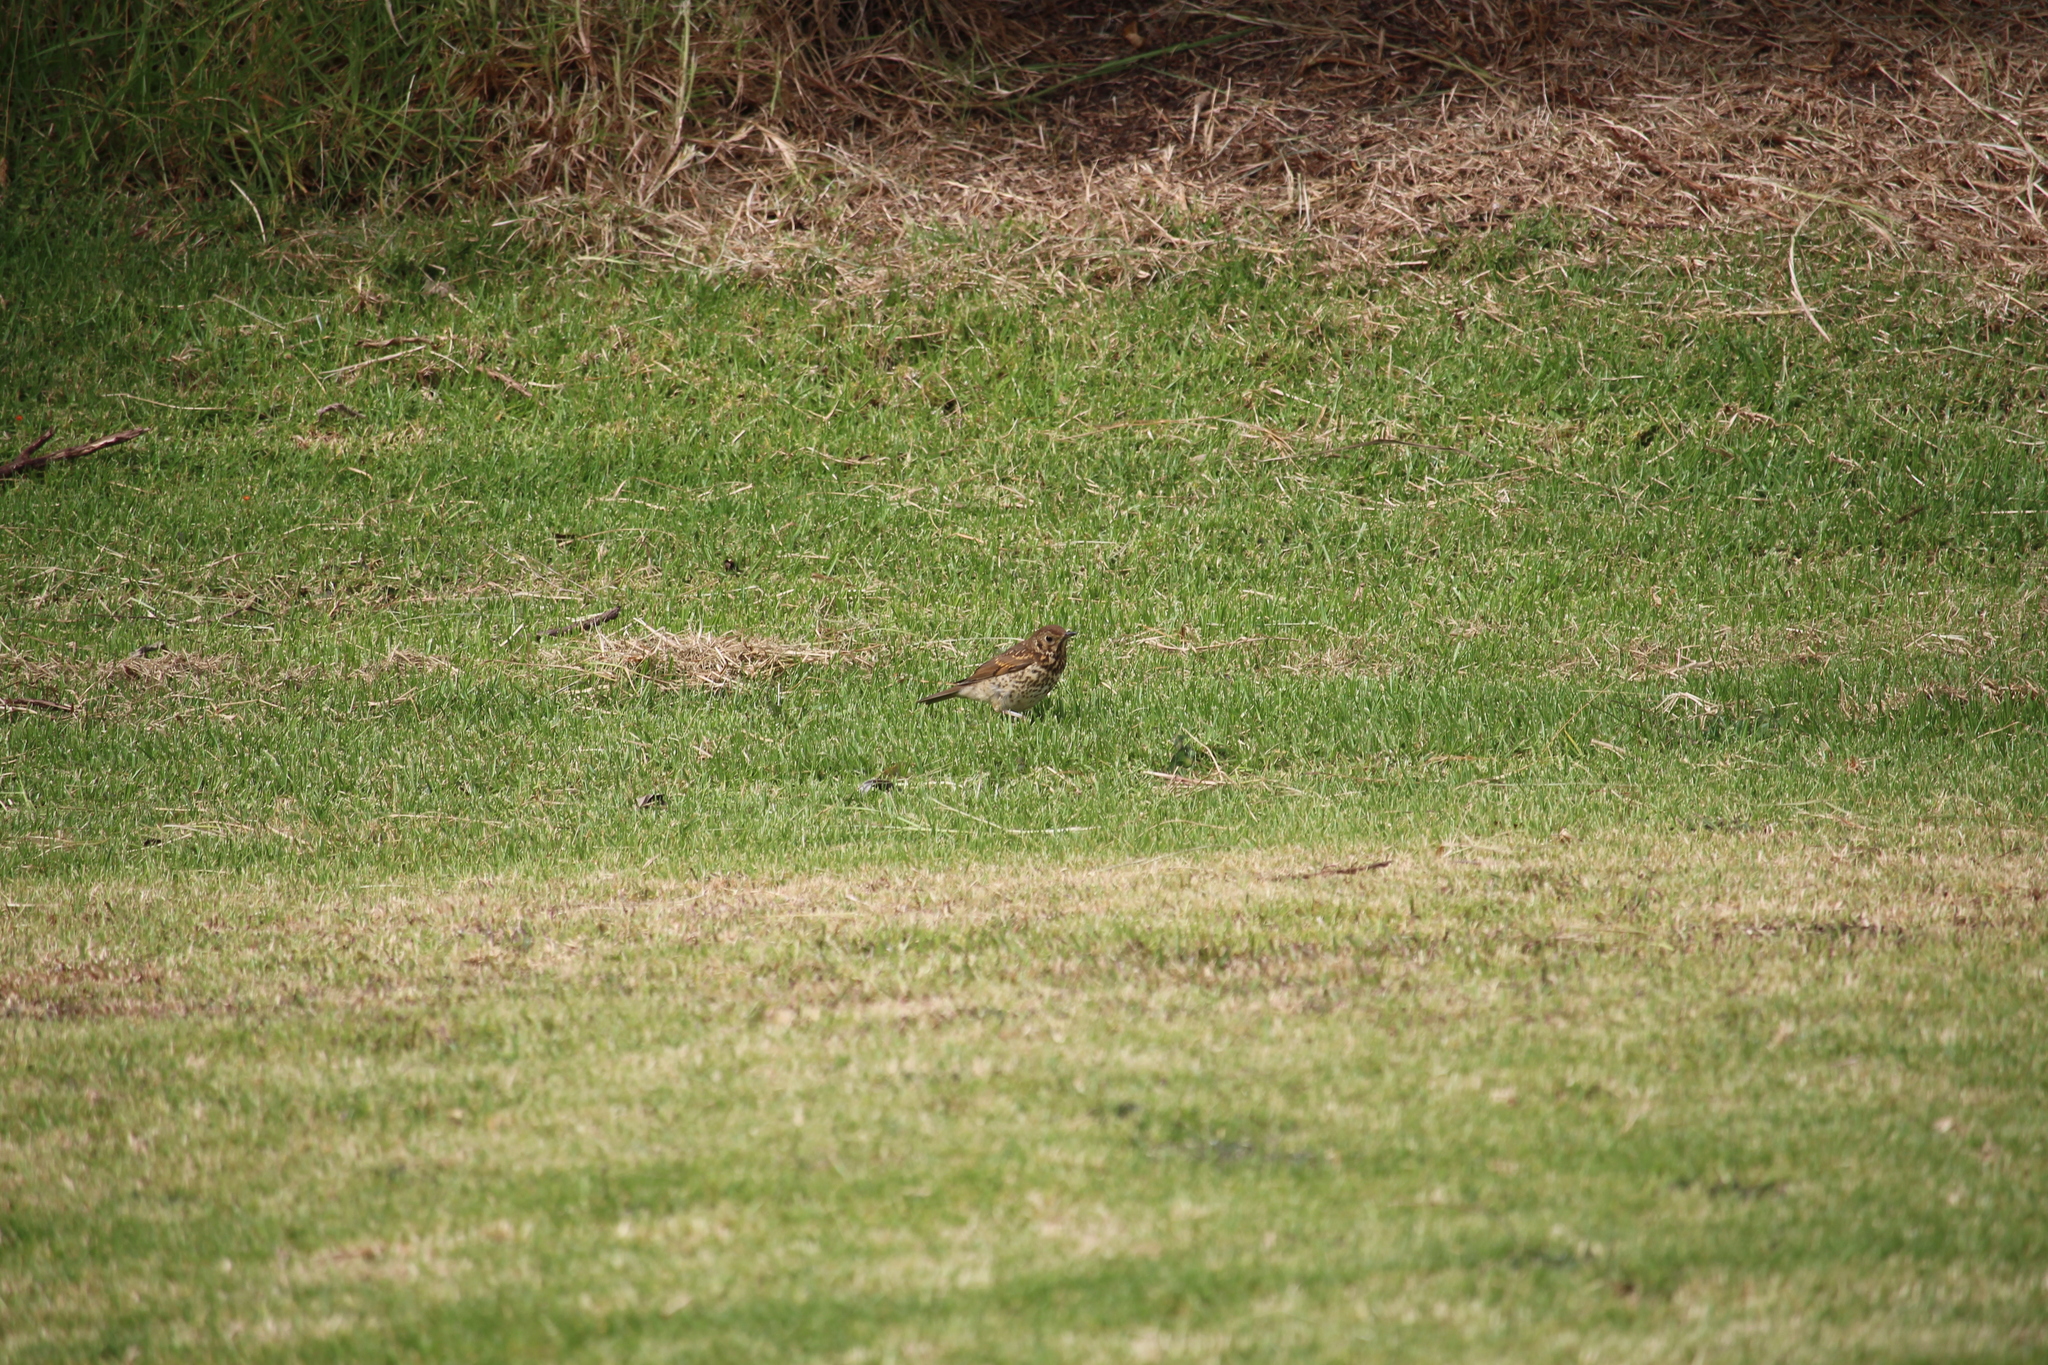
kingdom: Animalia
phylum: Chordata
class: Aves
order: Passeriformes
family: Turdidae
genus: Turdus
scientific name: Turdus philomelos
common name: Song thrush
